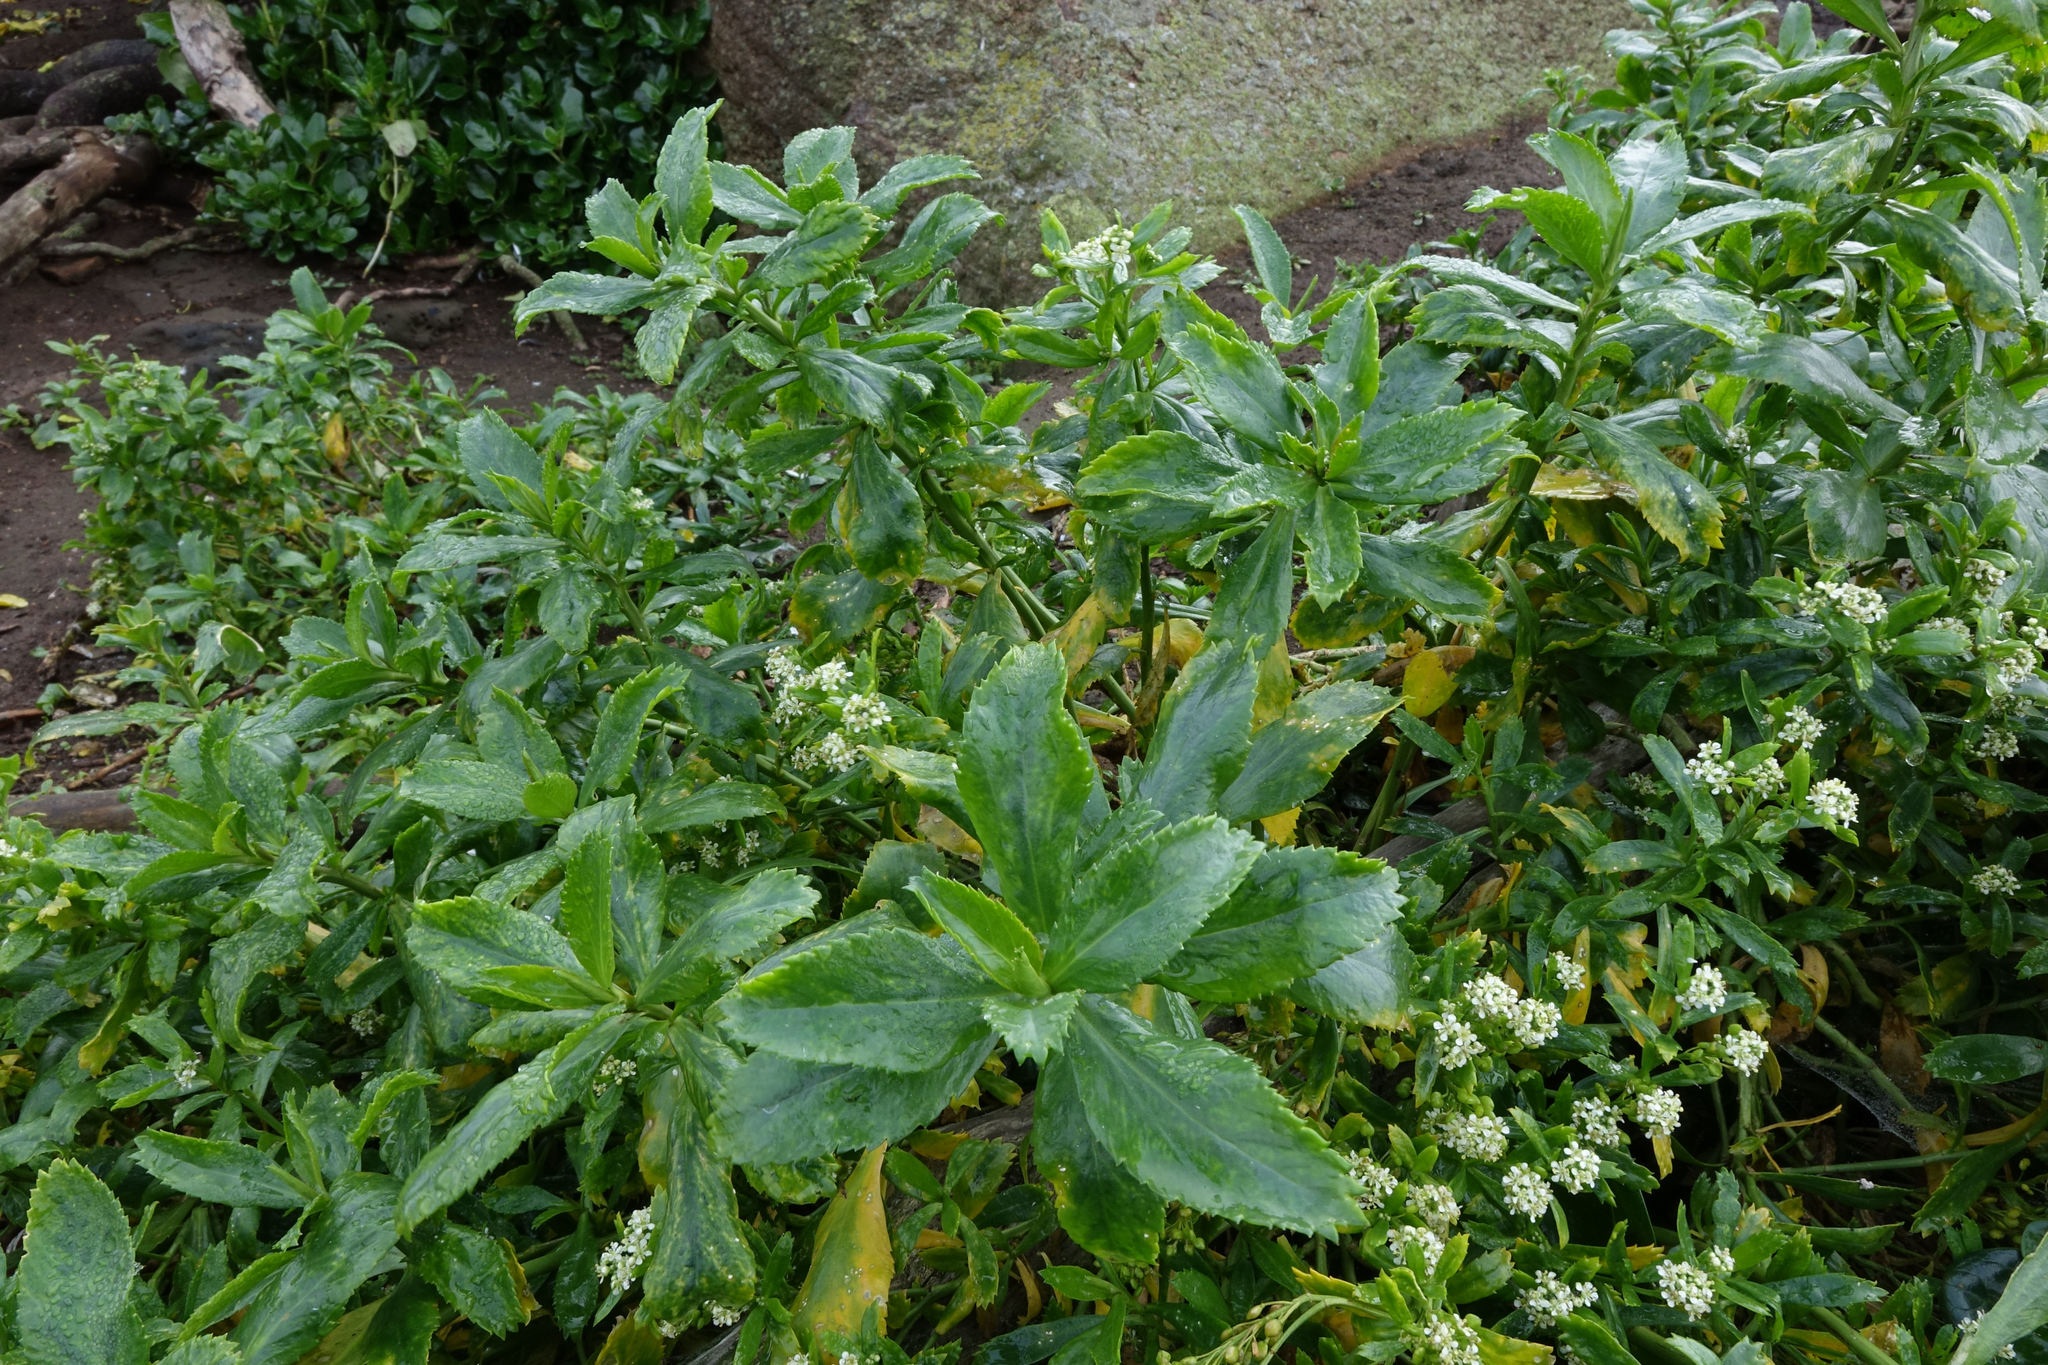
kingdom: Plantae
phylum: Tracheophyta
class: Magnoliopsida
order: Brassicales
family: Brassicaceae
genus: Lepidium
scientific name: Lepidium juvencum
